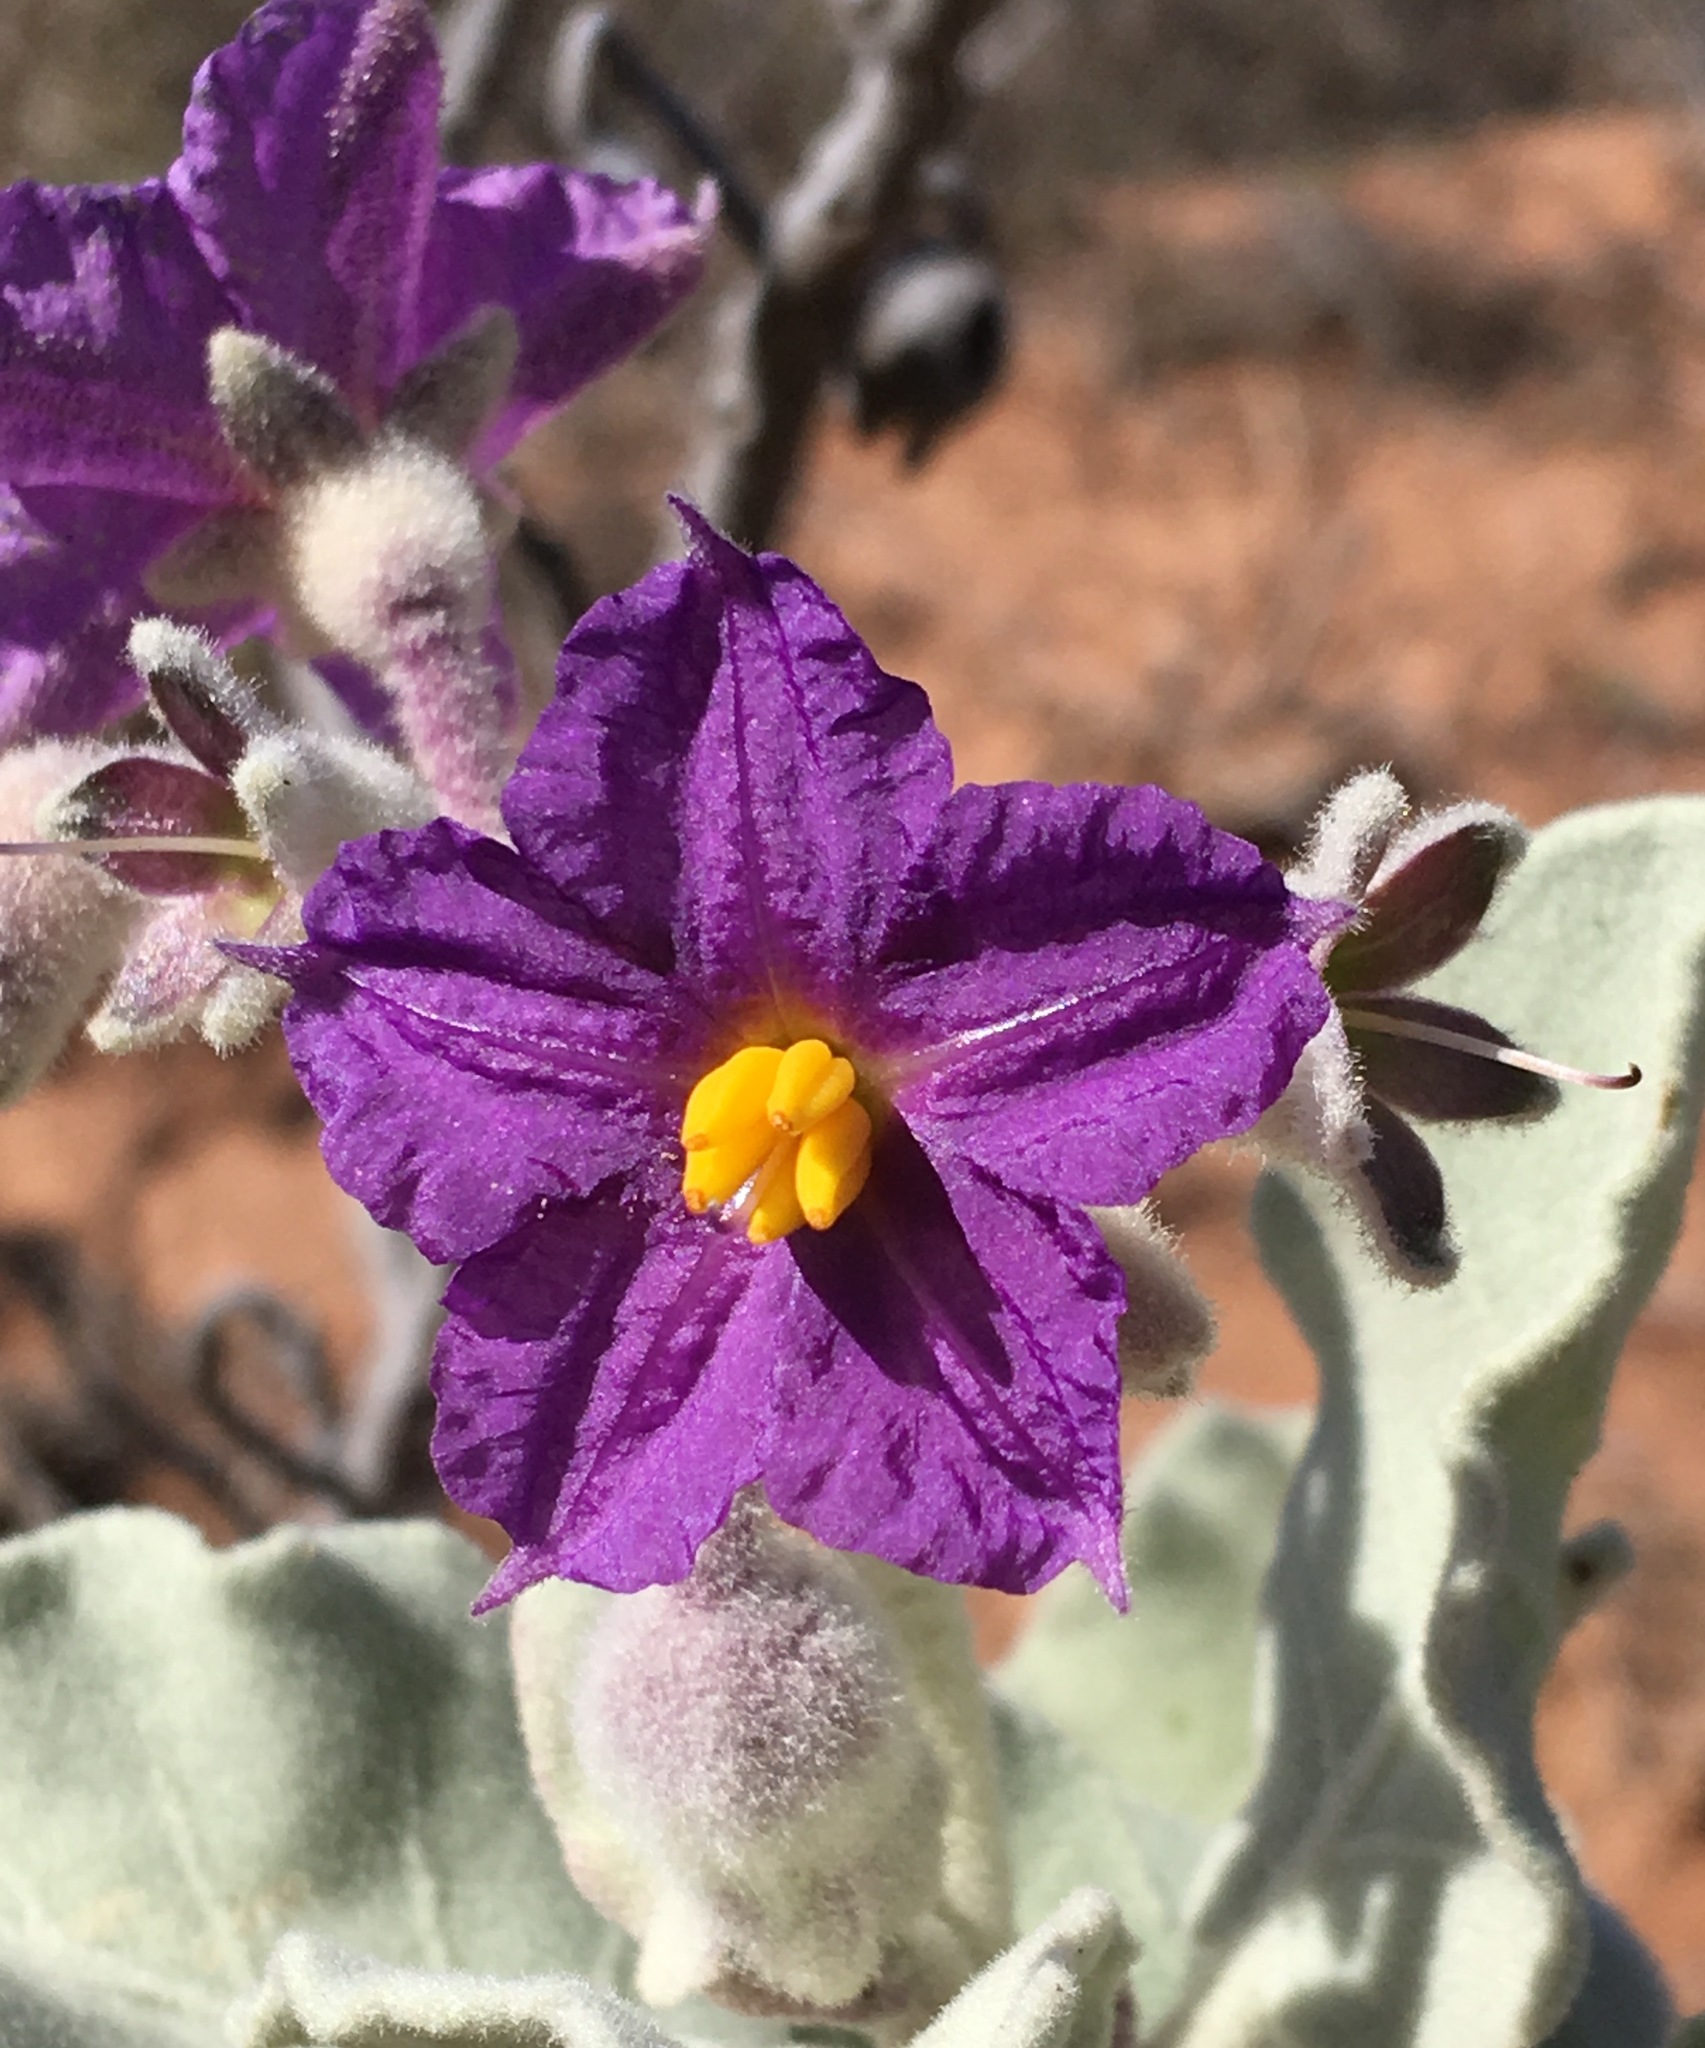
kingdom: Plantae
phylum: Tracheophyta
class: Magnoliopsida
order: Solanales
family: Solanaceae
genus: Solanum
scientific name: Solanum lasiophyllum
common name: Flannelbush
